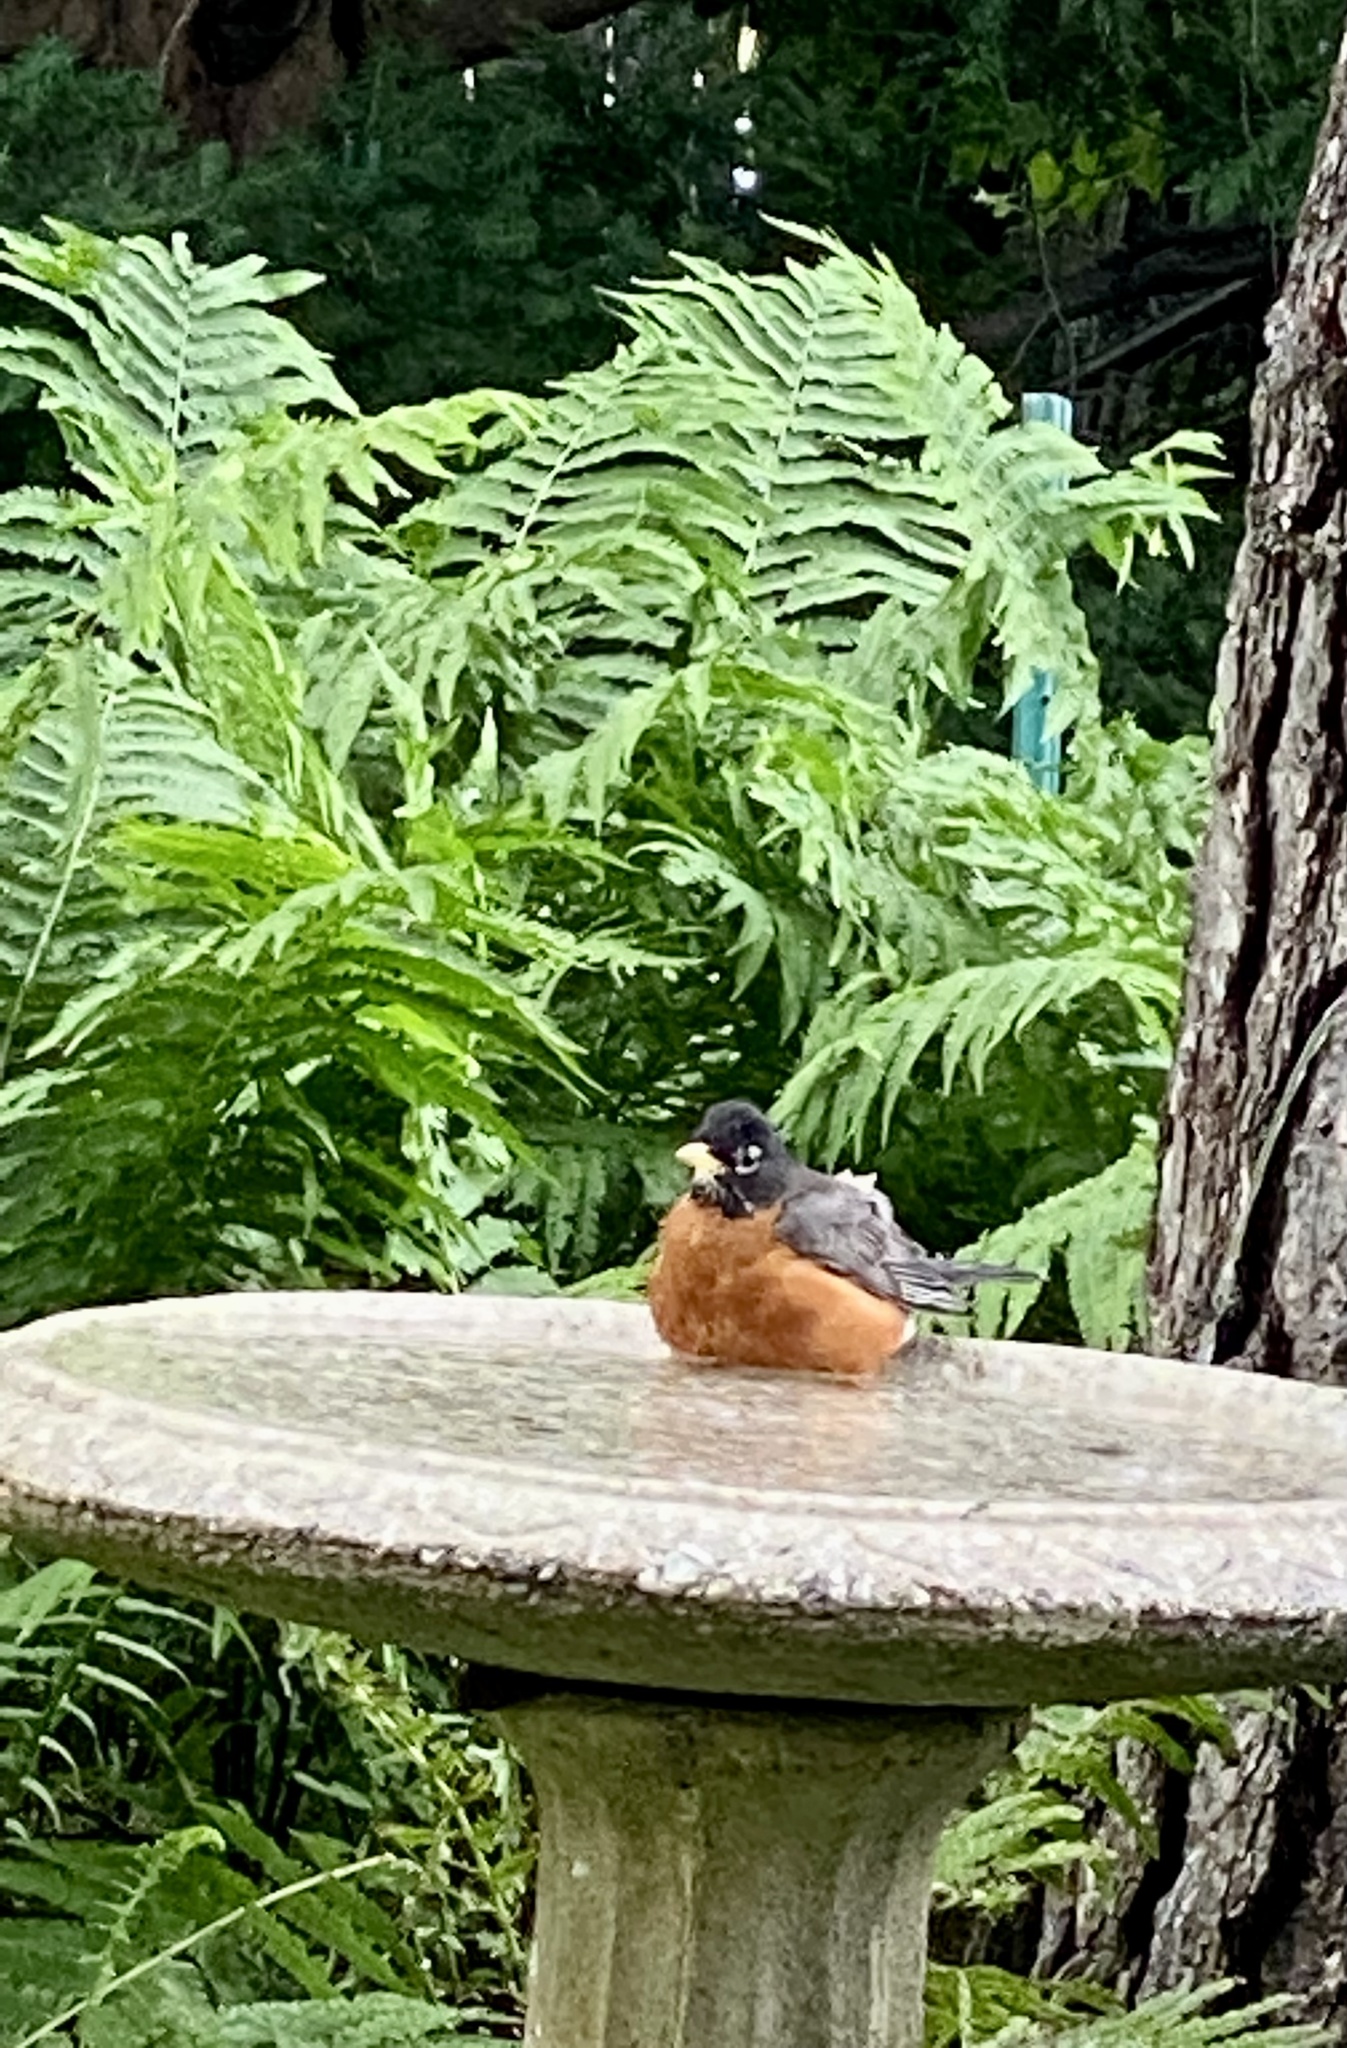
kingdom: Animalia
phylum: Chordata
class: Aves
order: Passeriformes
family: Turdidae
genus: Turdus
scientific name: Turdus migratorius
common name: American robin
